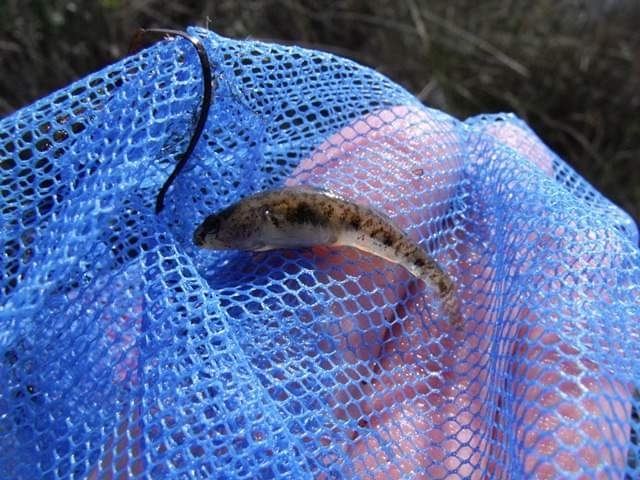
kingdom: Animalia
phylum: Chordata
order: Perciformes
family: Gobiidae
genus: Knipowitschia
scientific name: Knipowitschia panizzae
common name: Adriatic dwarf goby
